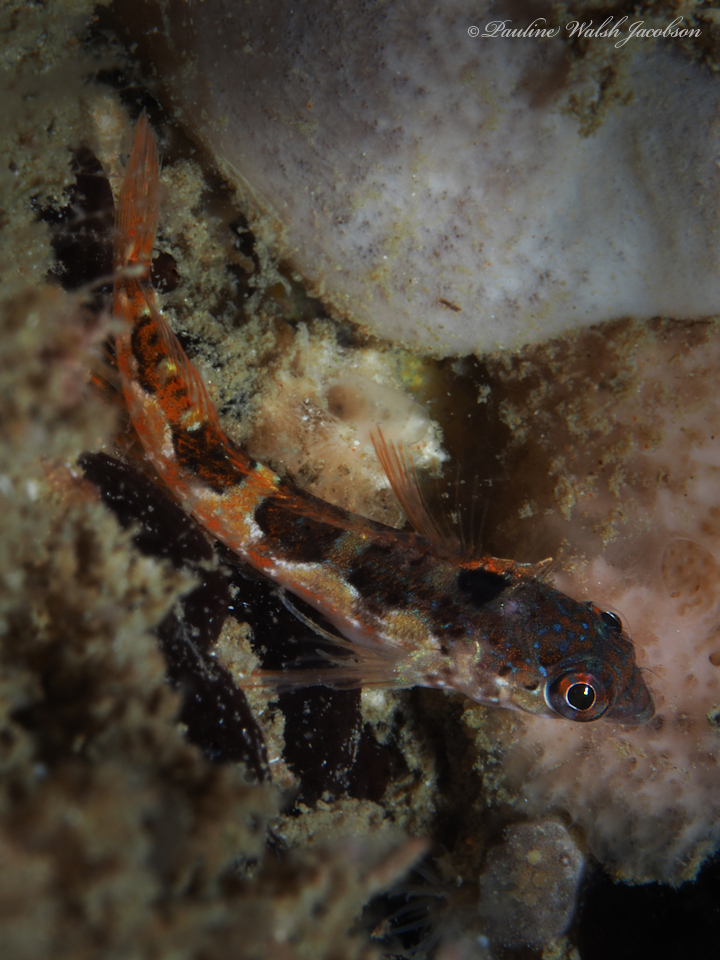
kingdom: Animalia
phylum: Chordata
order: Perciformes
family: Labrisomidae
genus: Malacoctenus
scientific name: Malacoctenus triangulatus
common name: Saddled blenny
